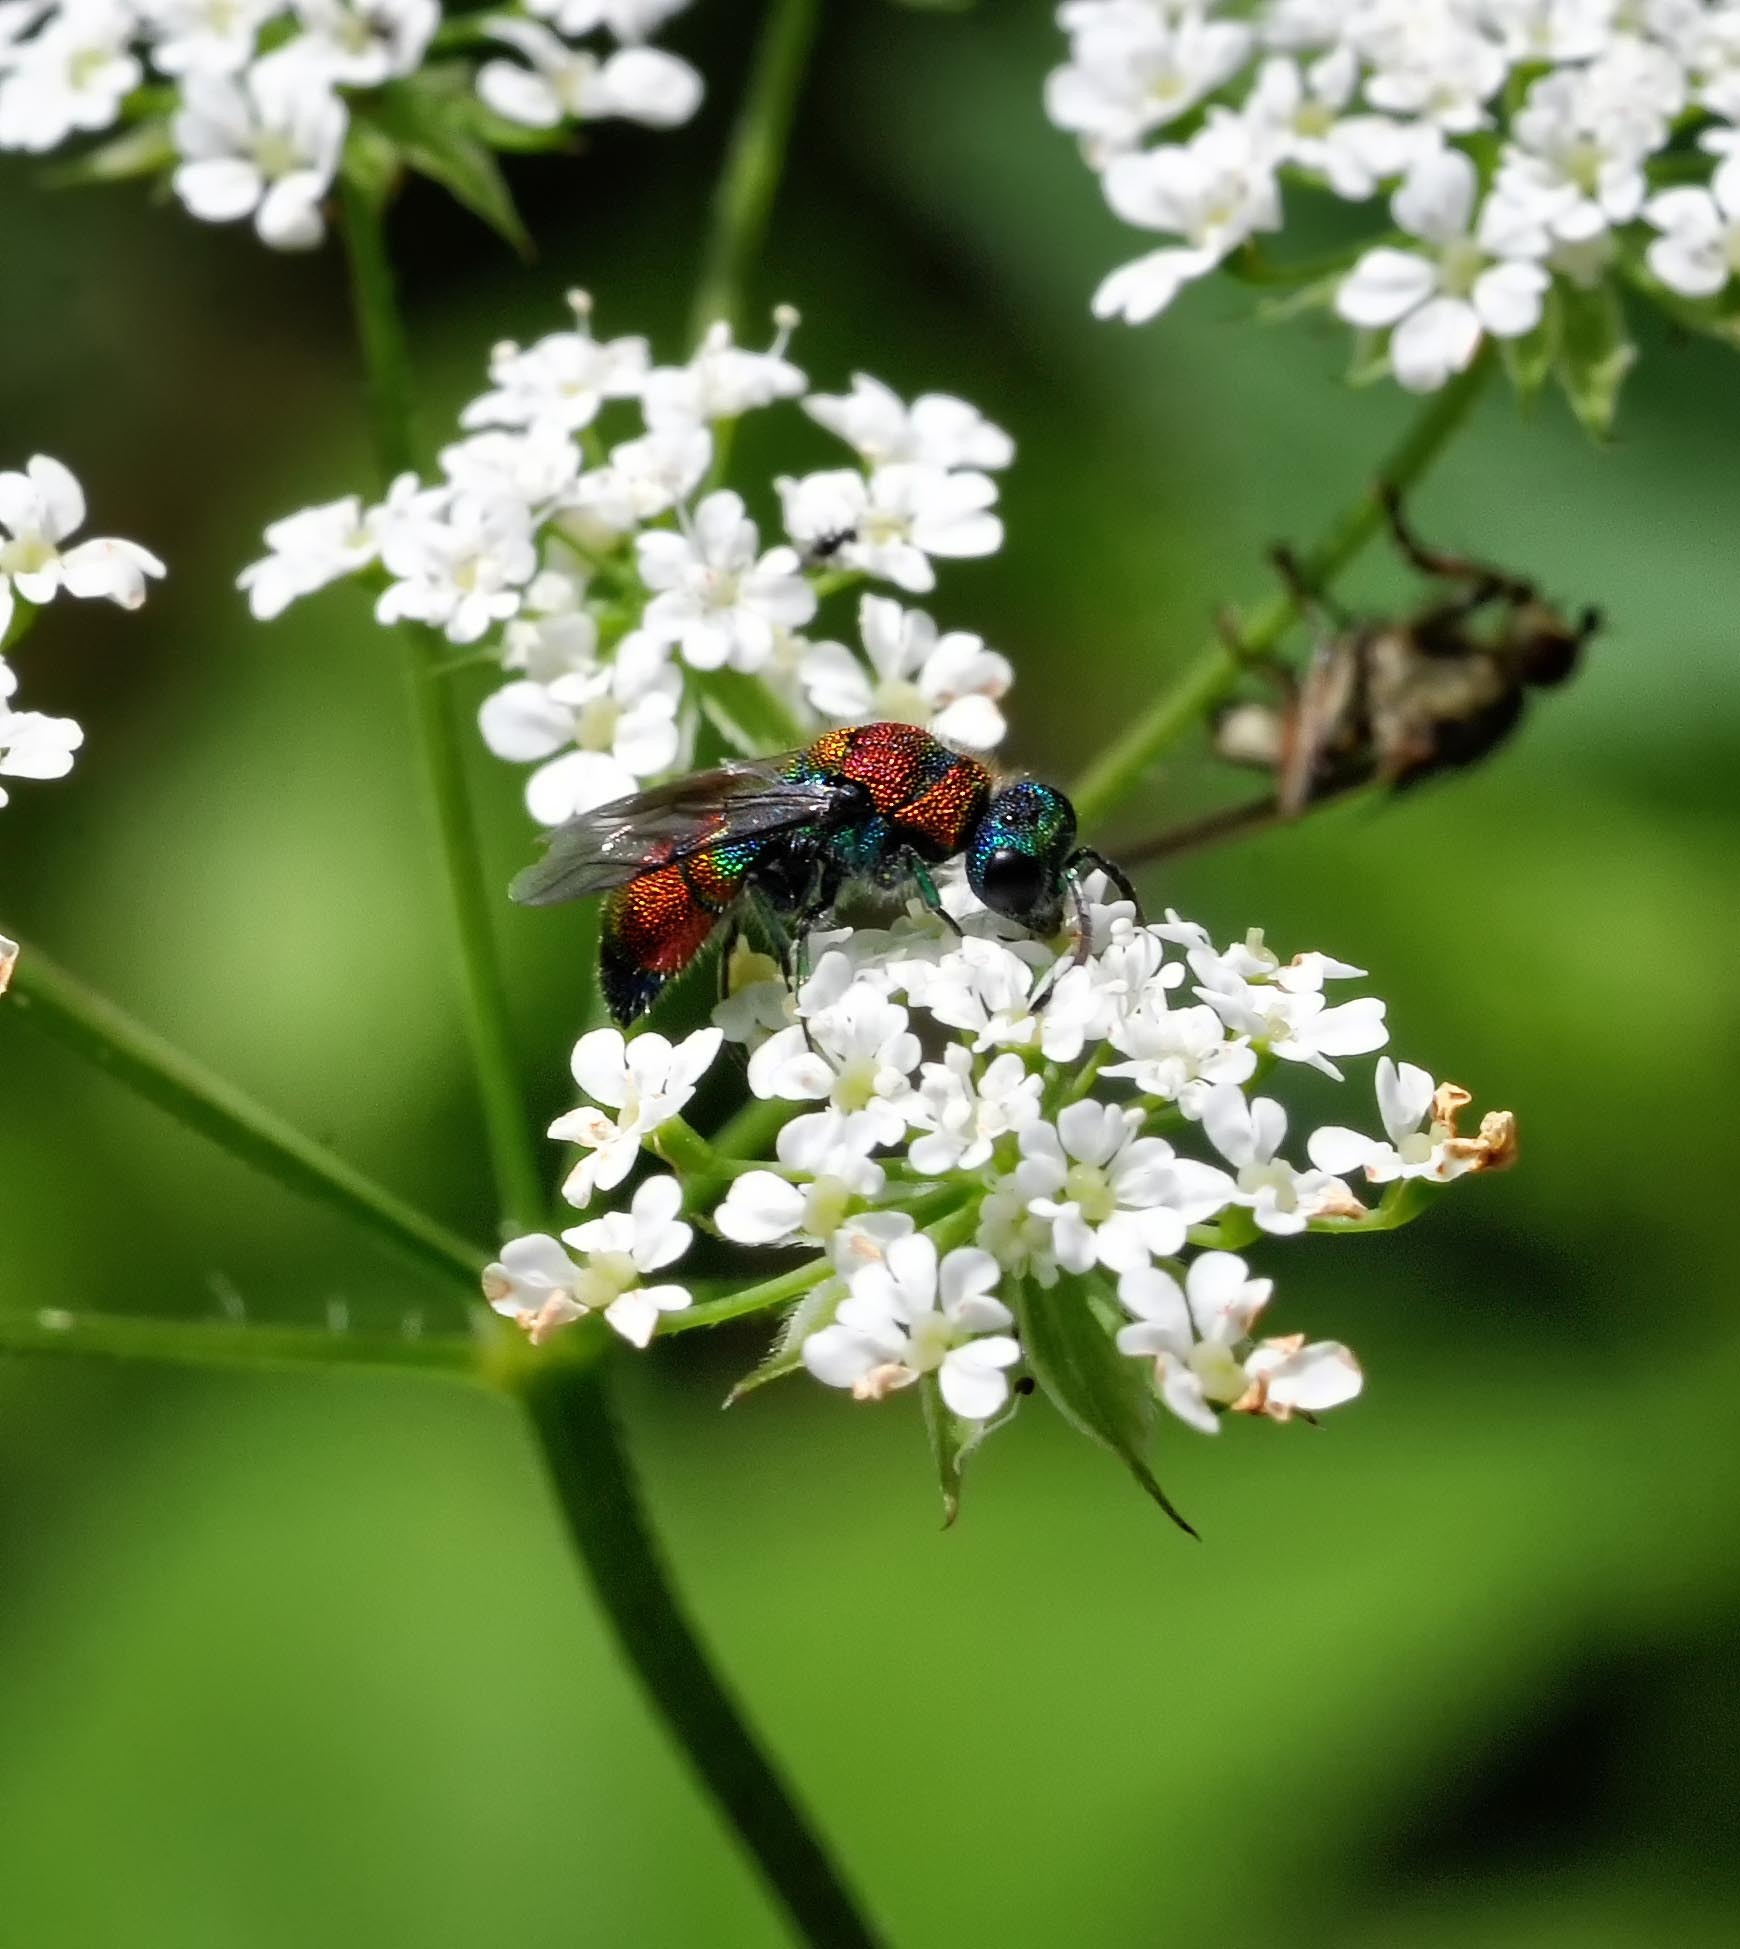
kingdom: Animalia
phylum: Arthropoda
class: Insecta
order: Hymenoptera
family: Chrysididae
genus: Chrysis
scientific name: Chrysis viridula
